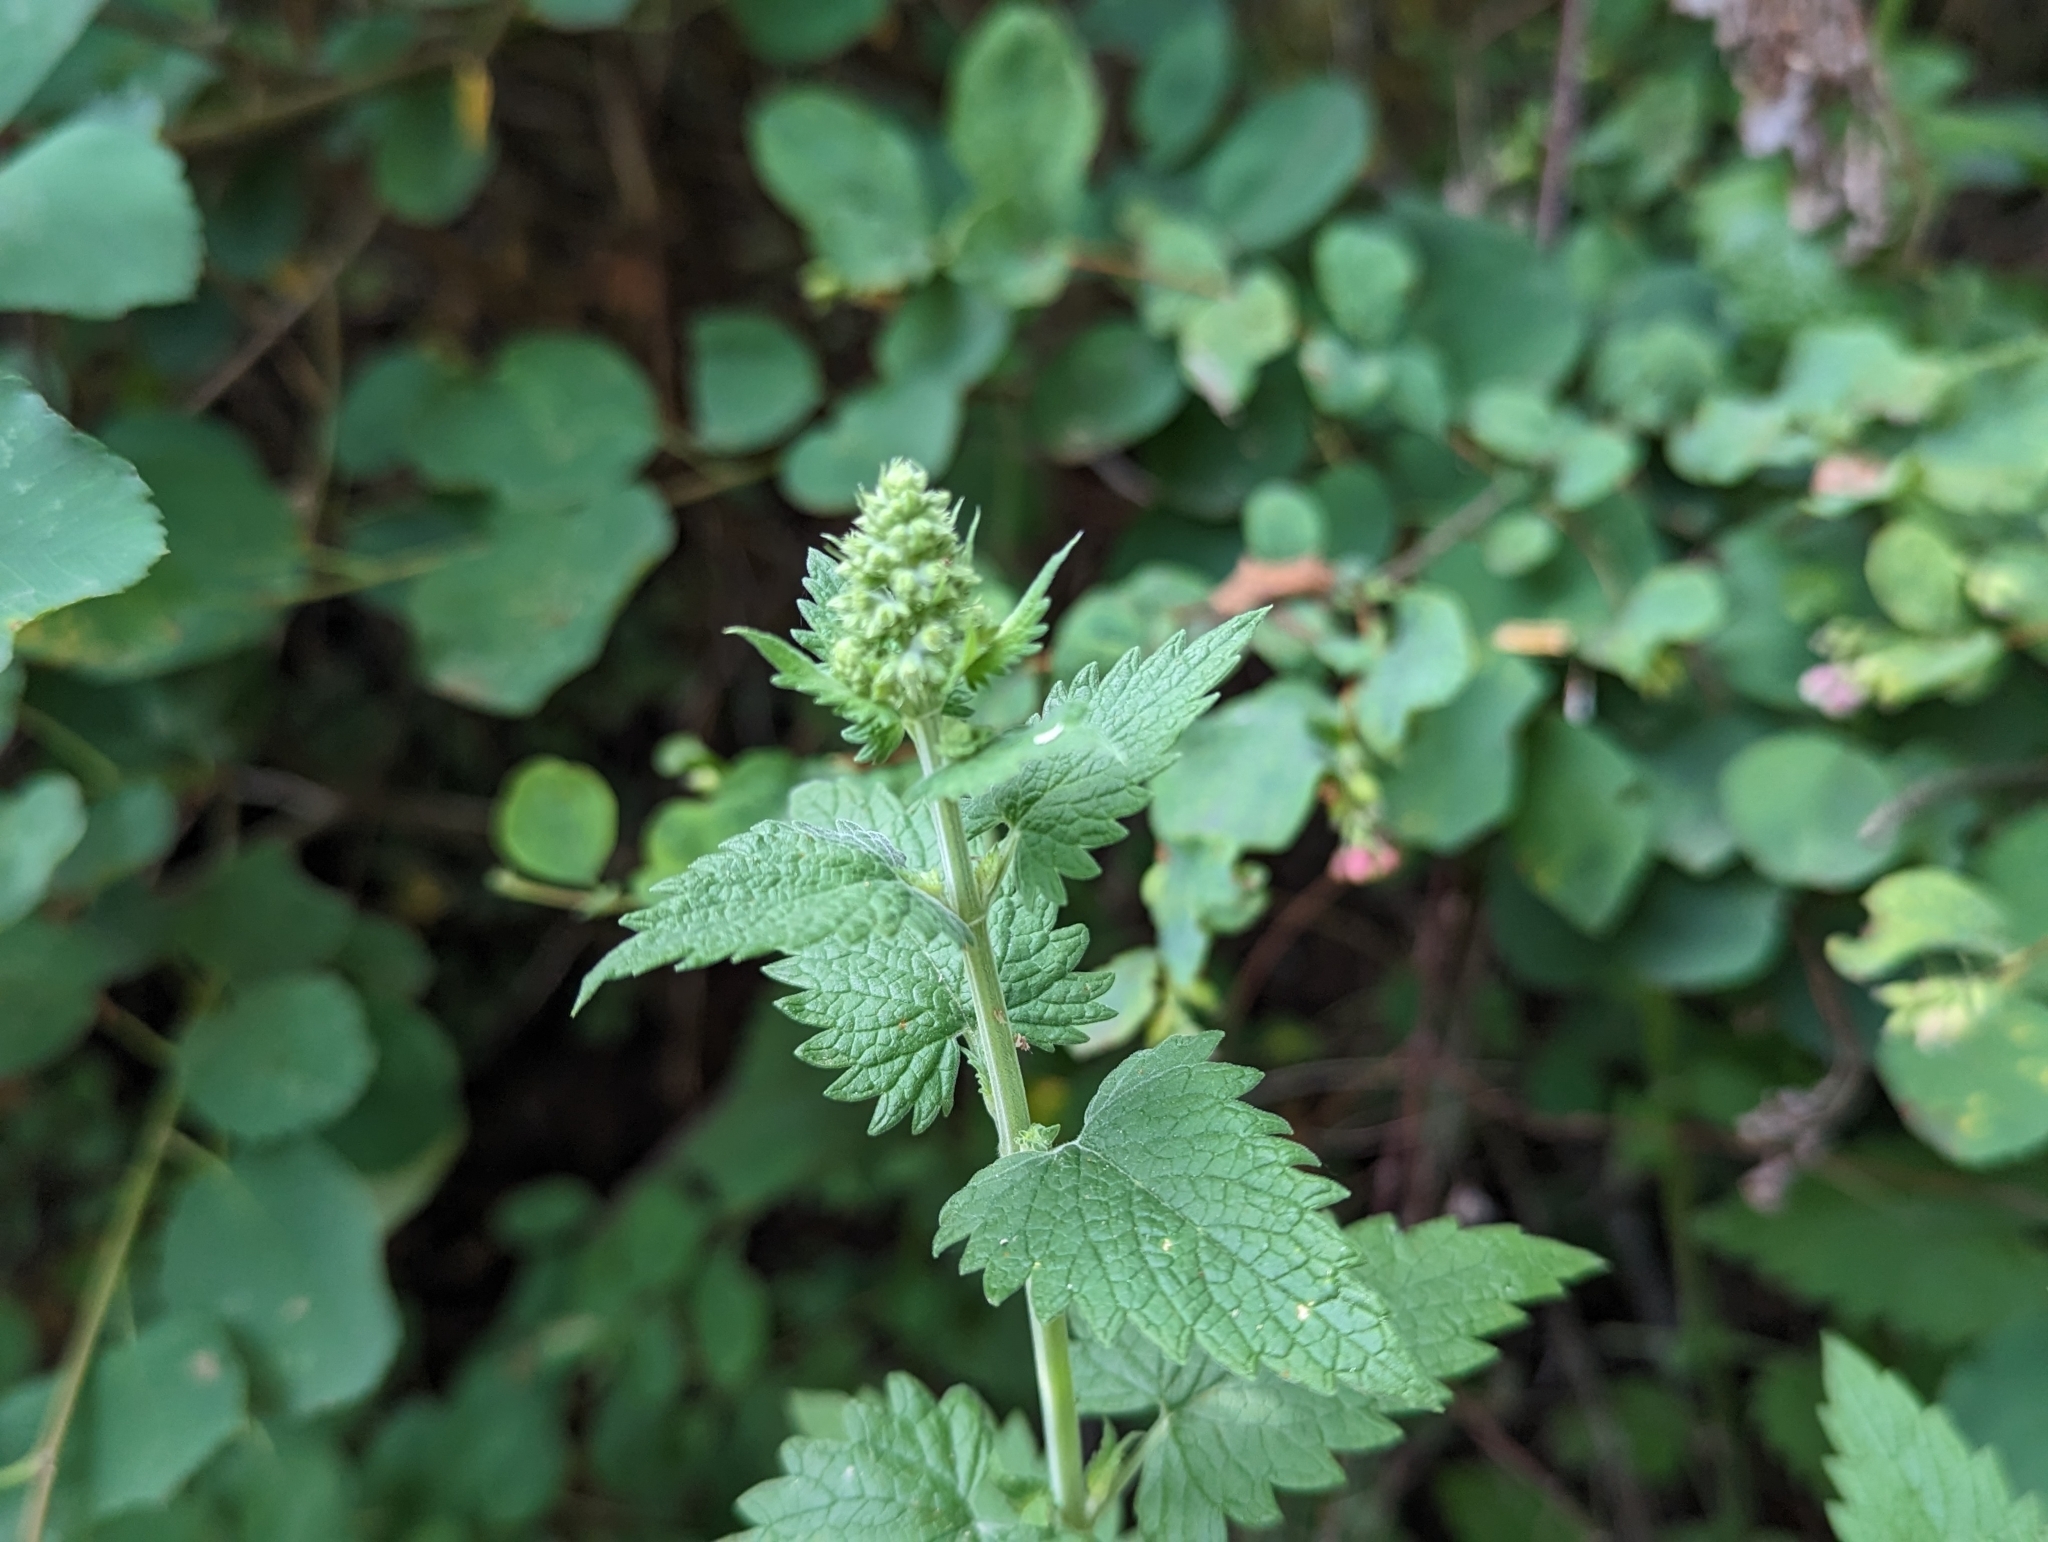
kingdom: Plantae
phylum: Tracheophyta
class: Magnoliopsida
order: Lamiales
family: Lamiaceae
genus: Nepeta
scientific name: Nepeta cataria
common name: Catnip
